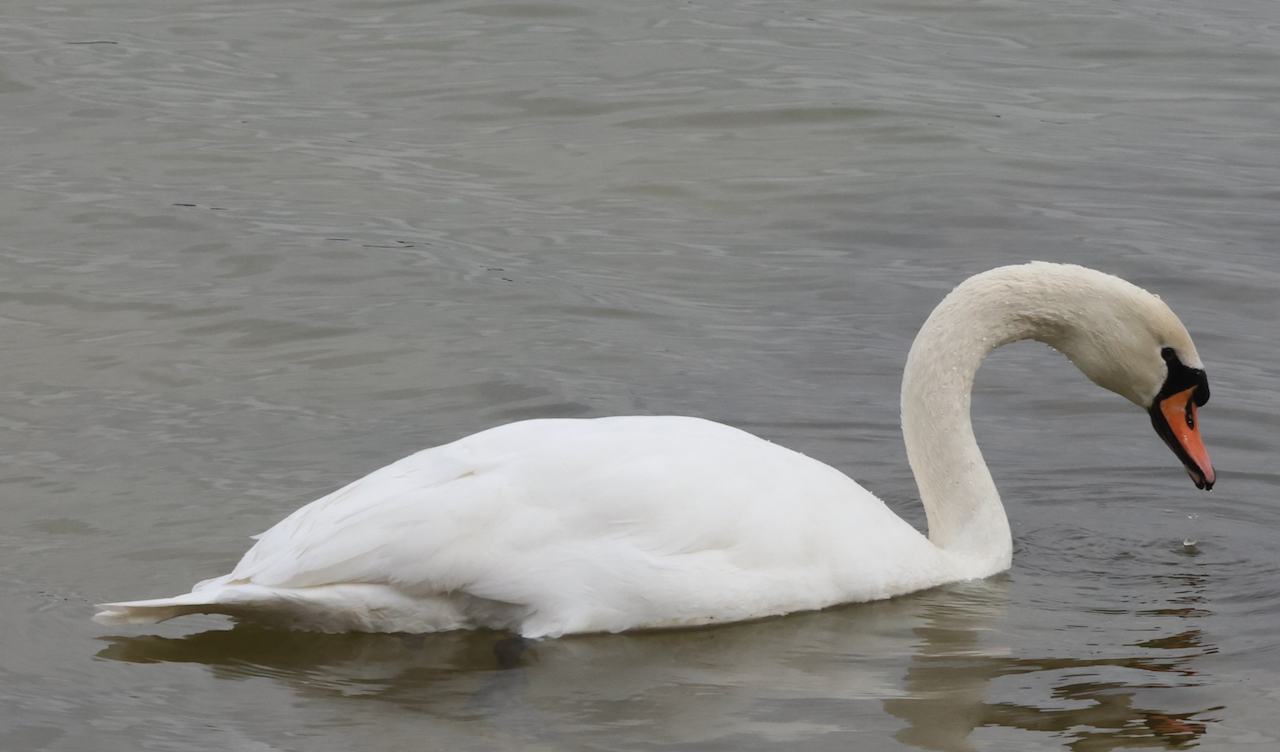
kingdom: Animalia
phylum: Chordata
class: Aves
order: Anseriformes
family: Anatidae
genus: Cygnus
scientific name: Cygnus olor
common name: Mute swan
